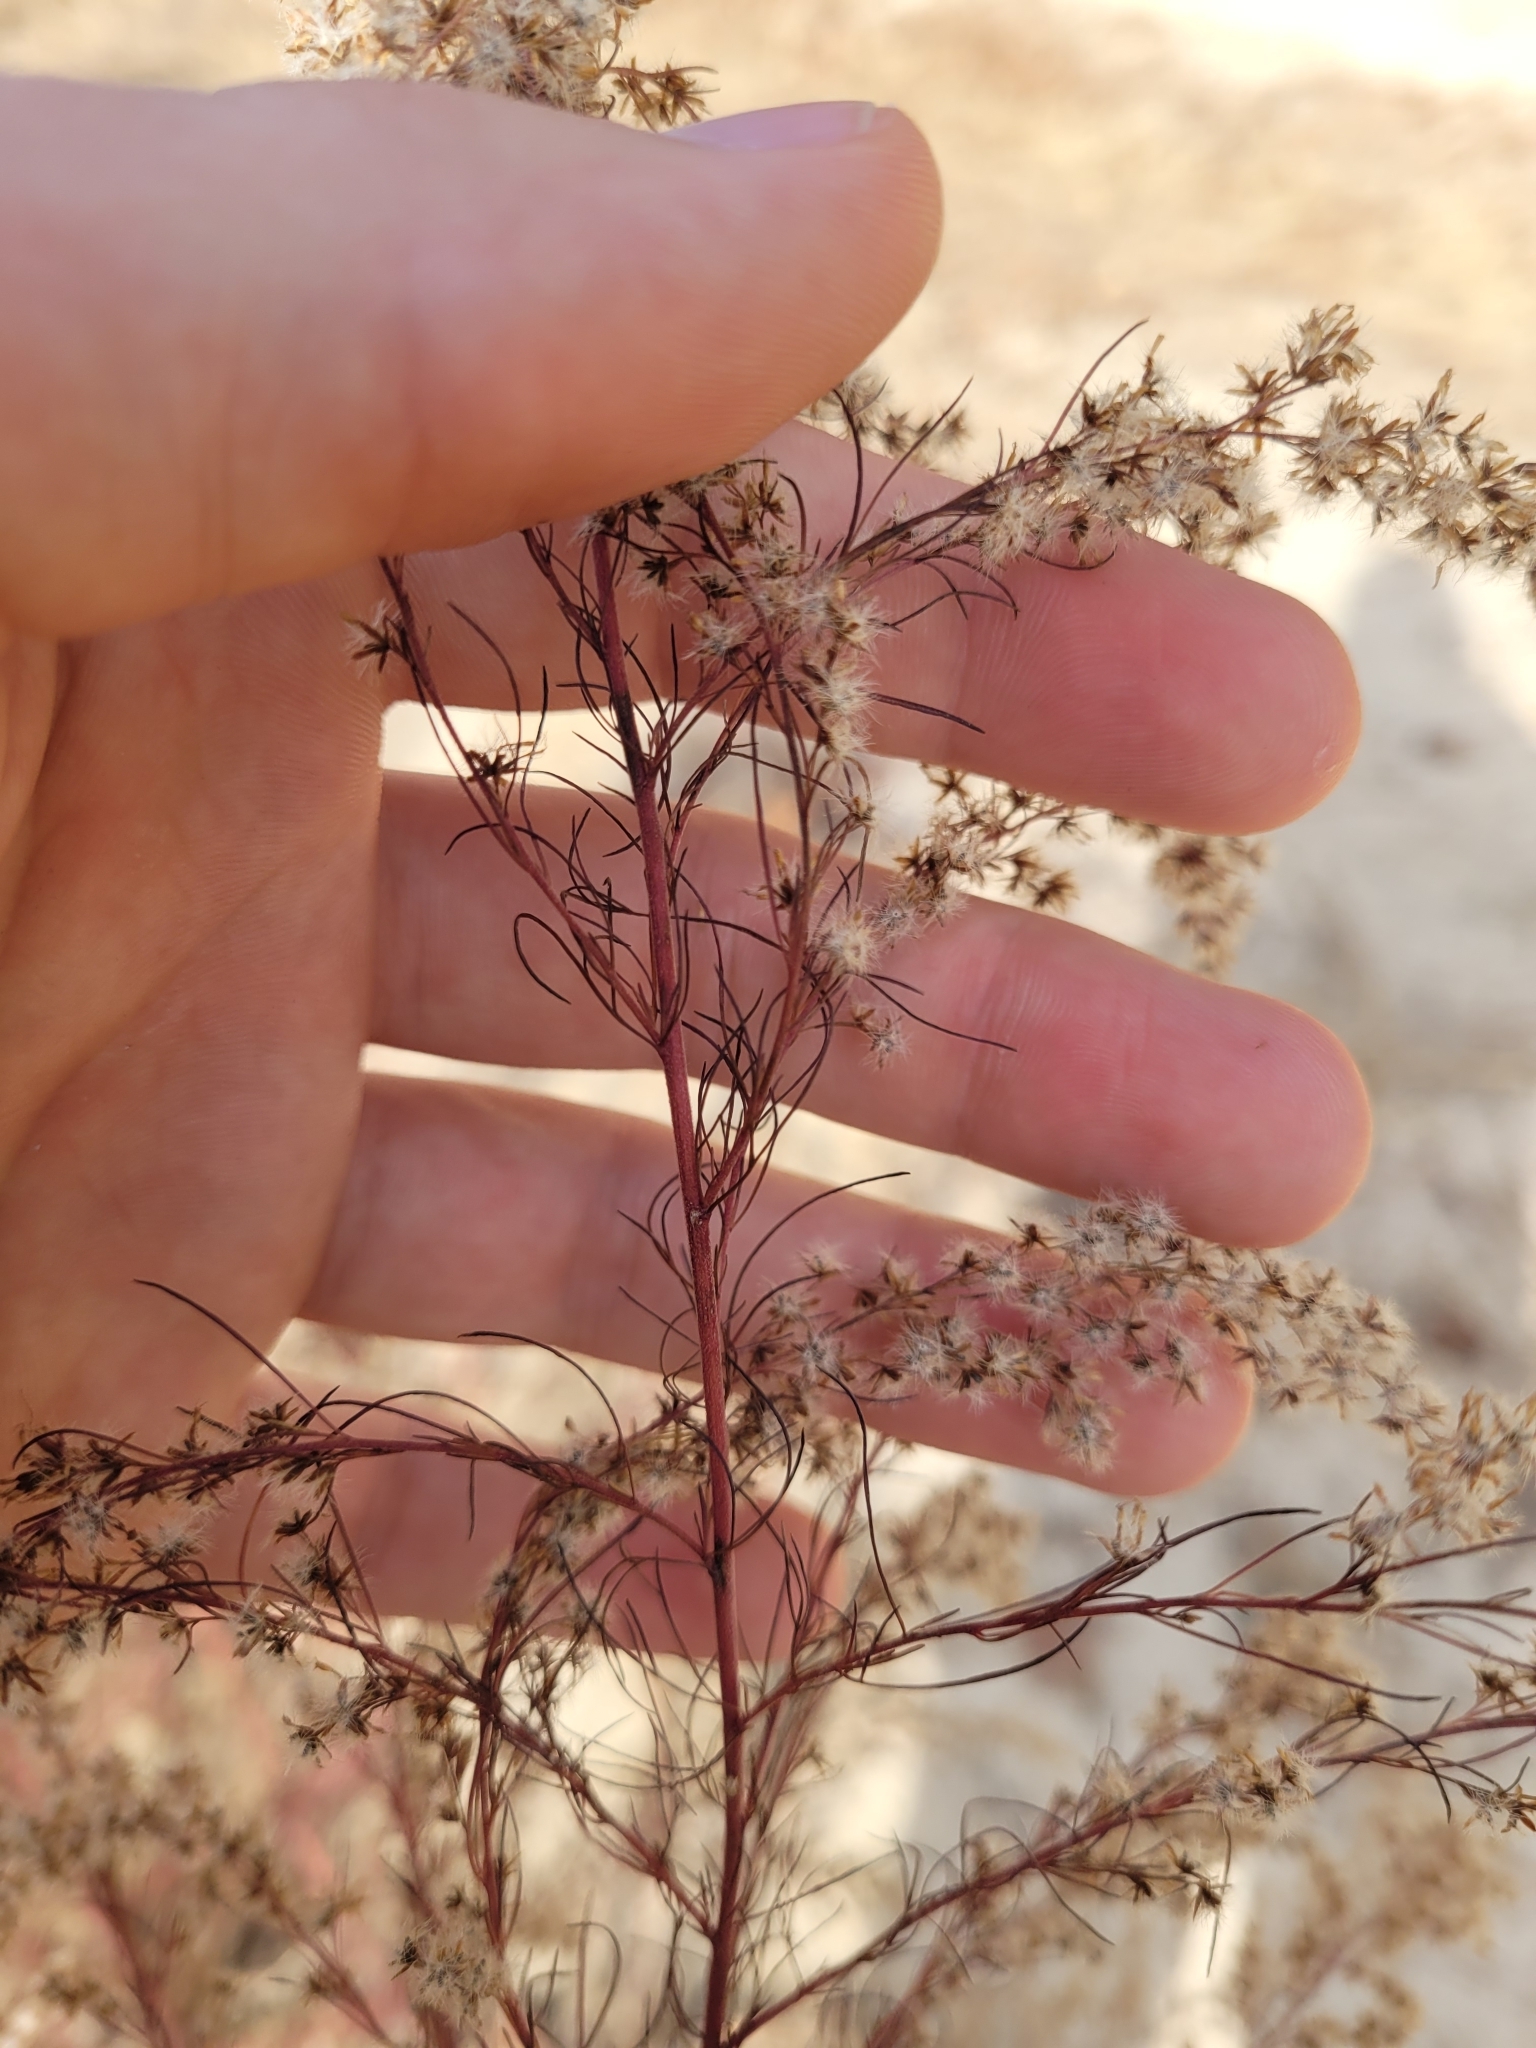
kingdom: Plantae
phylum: Tracheophyta
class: Magnoliopsida
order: Asterales
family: Asteraceae
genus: Eupatorium
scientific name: Eupatorium capillifolium
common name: Dog-fennel
